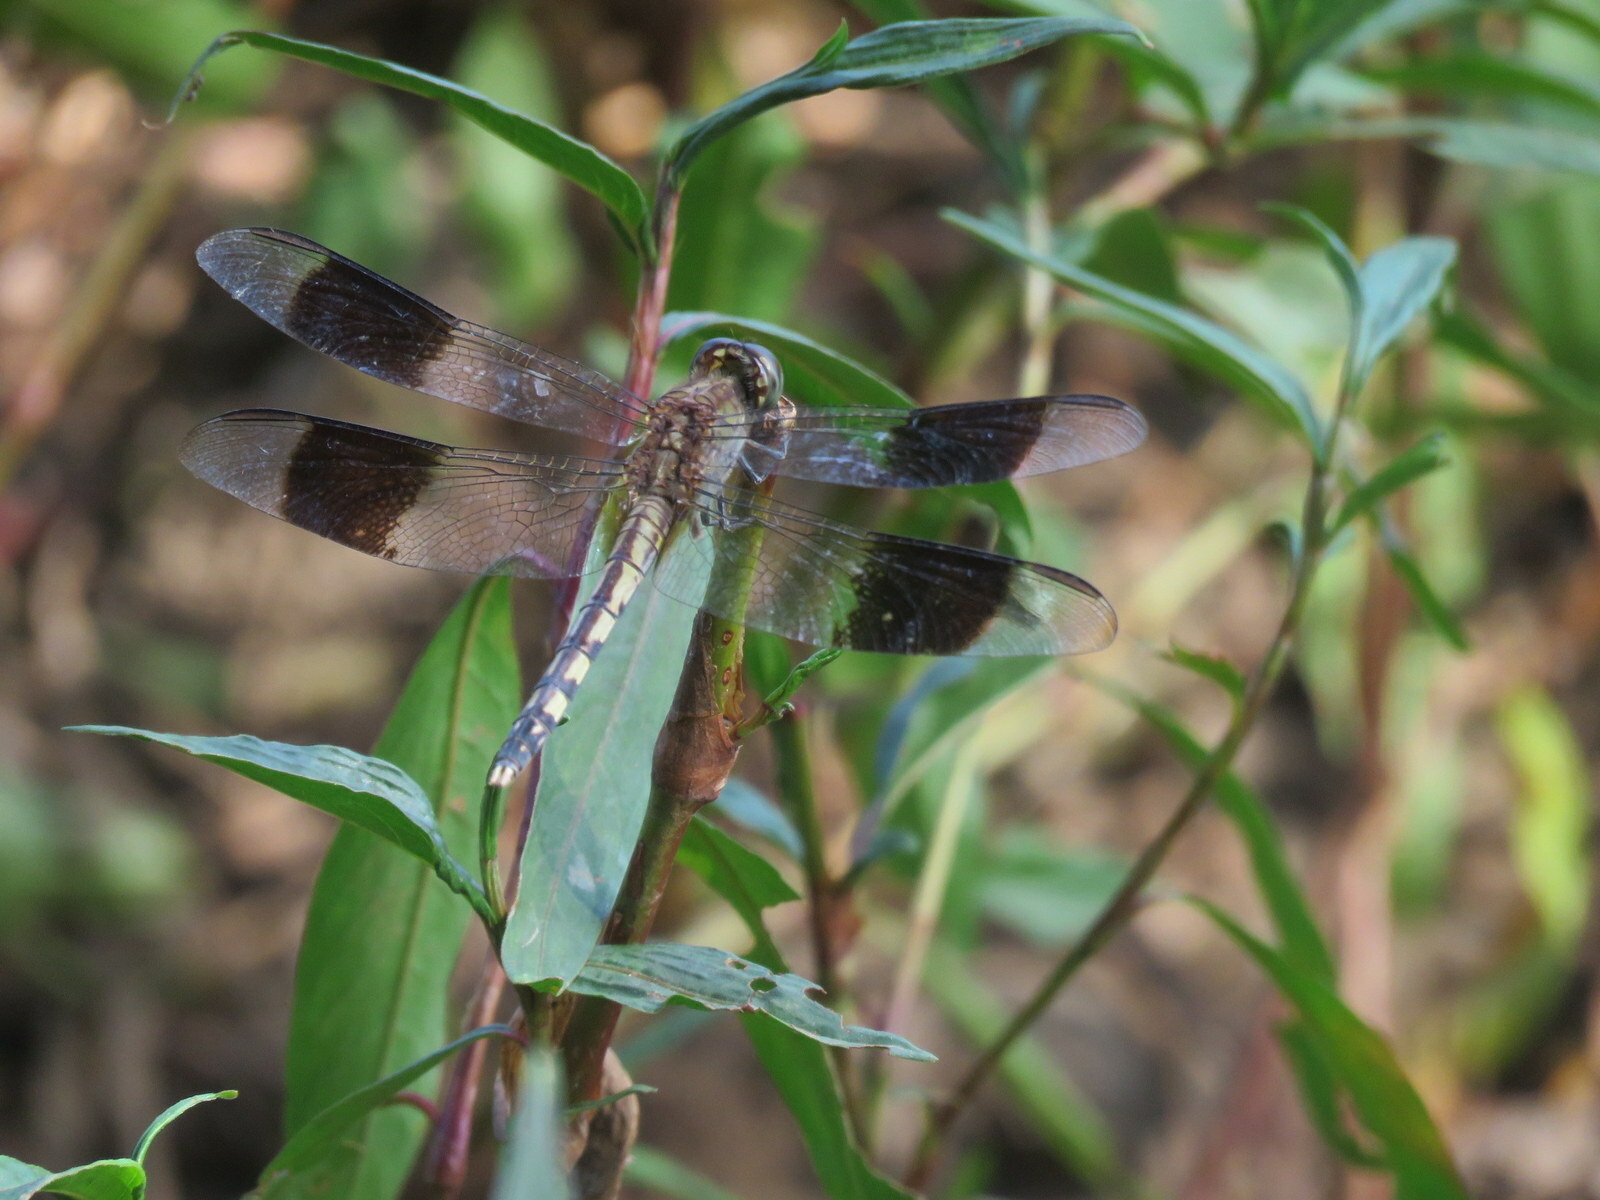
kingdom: Animalia
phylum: Arthropoda
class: Insecta
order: Odonata
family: Libellulidae
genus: Erythrodiplax
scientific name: Erythrodiplax umbrata
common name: Band-winged dragonlet
